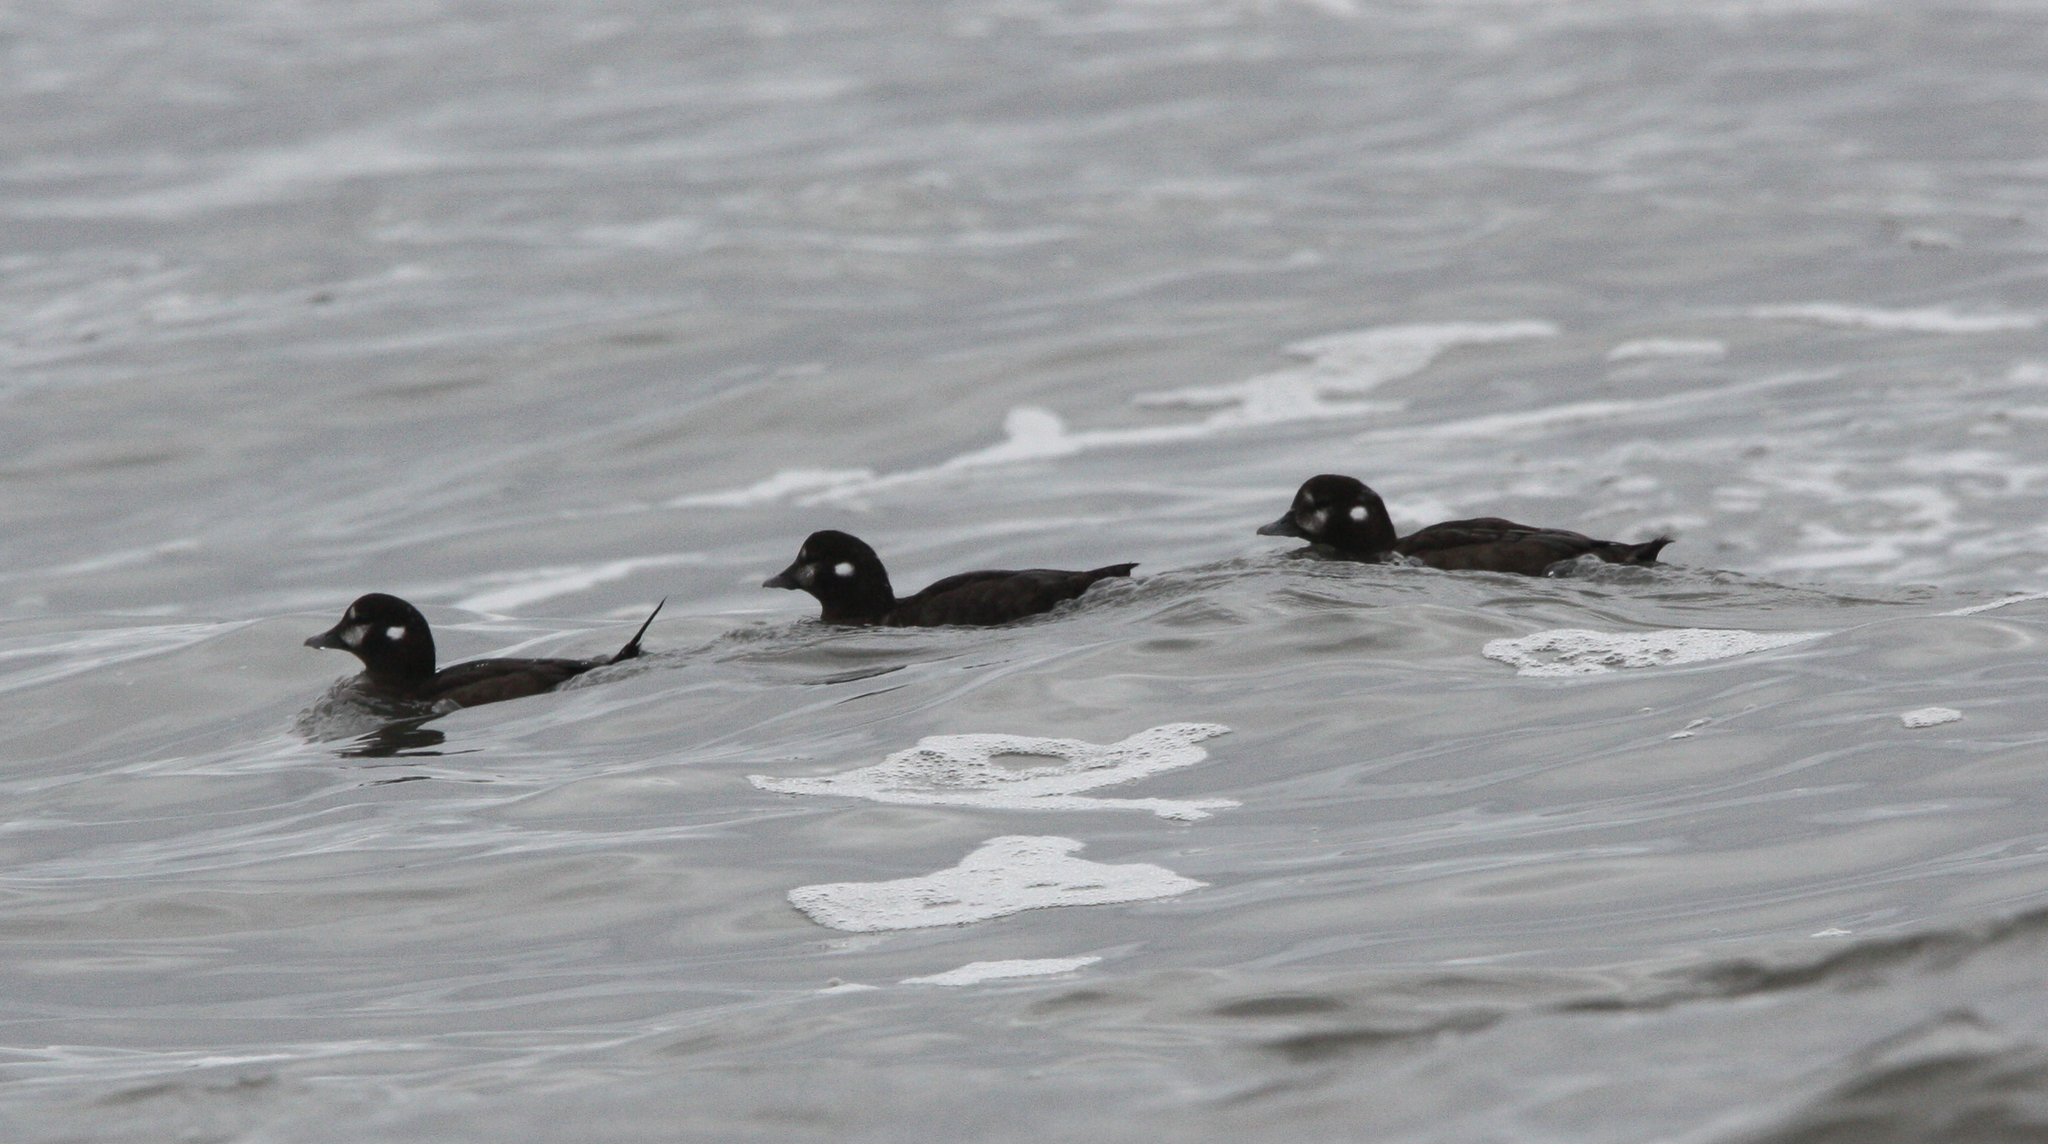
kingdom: Animalia
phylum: Chordata
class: Aves
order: Anseriformes
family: Anatidae
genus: Histrionicus
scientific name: Histrionicus histrionicus
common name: Harlequin duck
